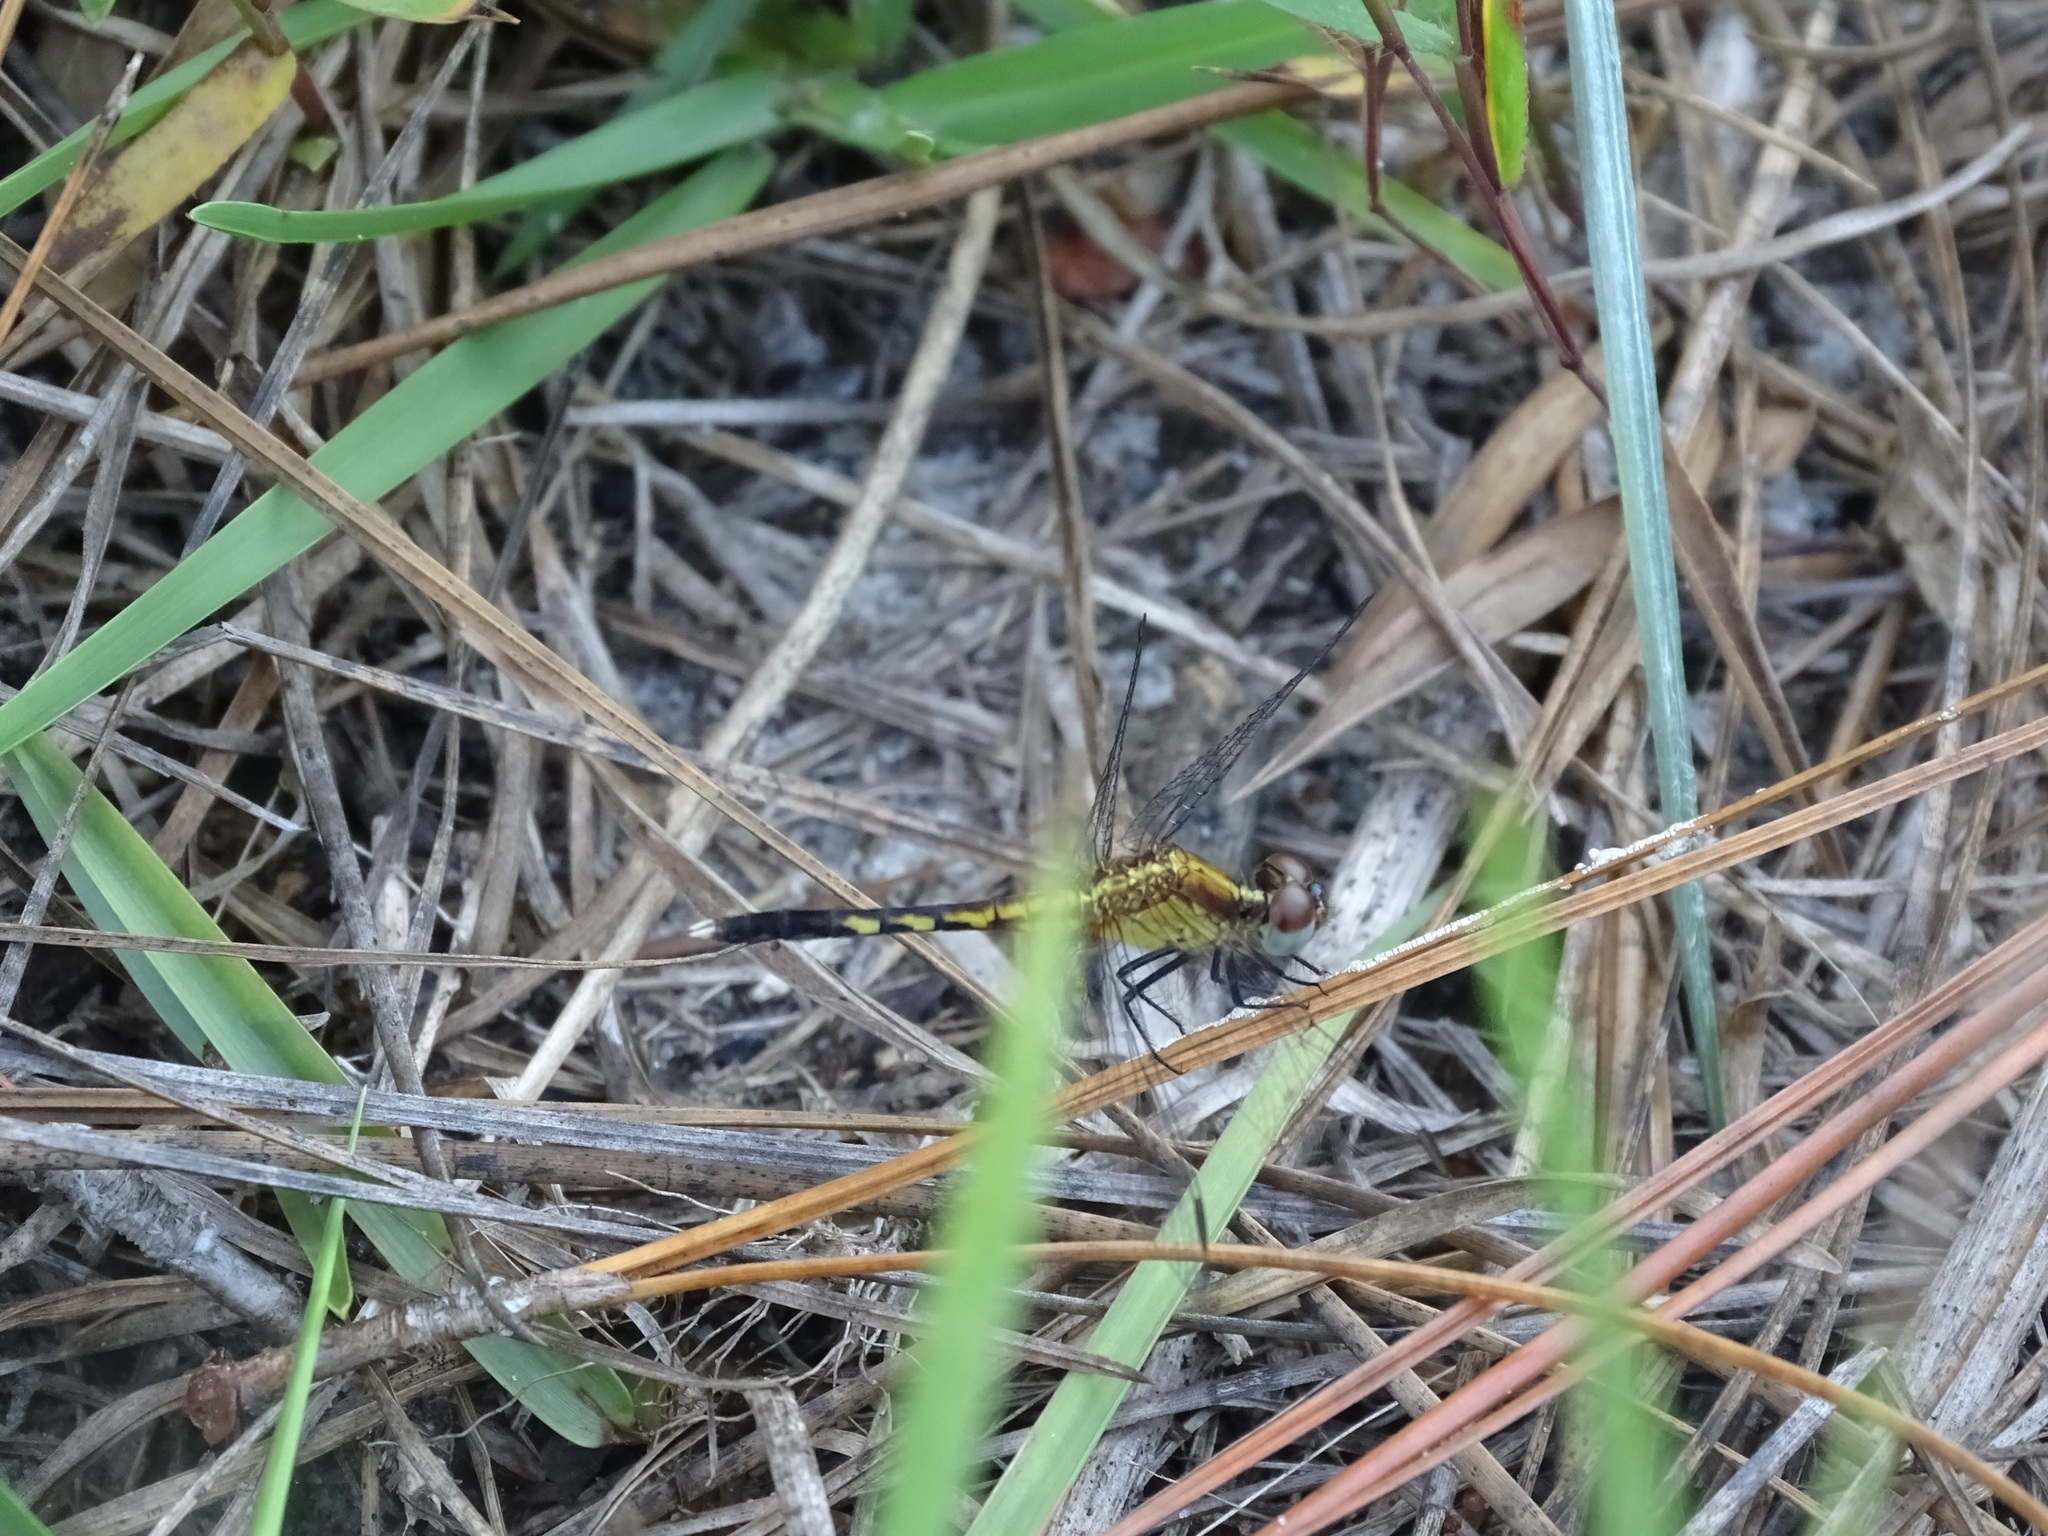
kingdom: Animalia
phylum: Arthropoda
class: Insecta
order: Odonata
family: Libellulidae
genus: Erythrodiplax
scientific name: Erythrodiplax minuscula
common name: Little blue dragonlet
